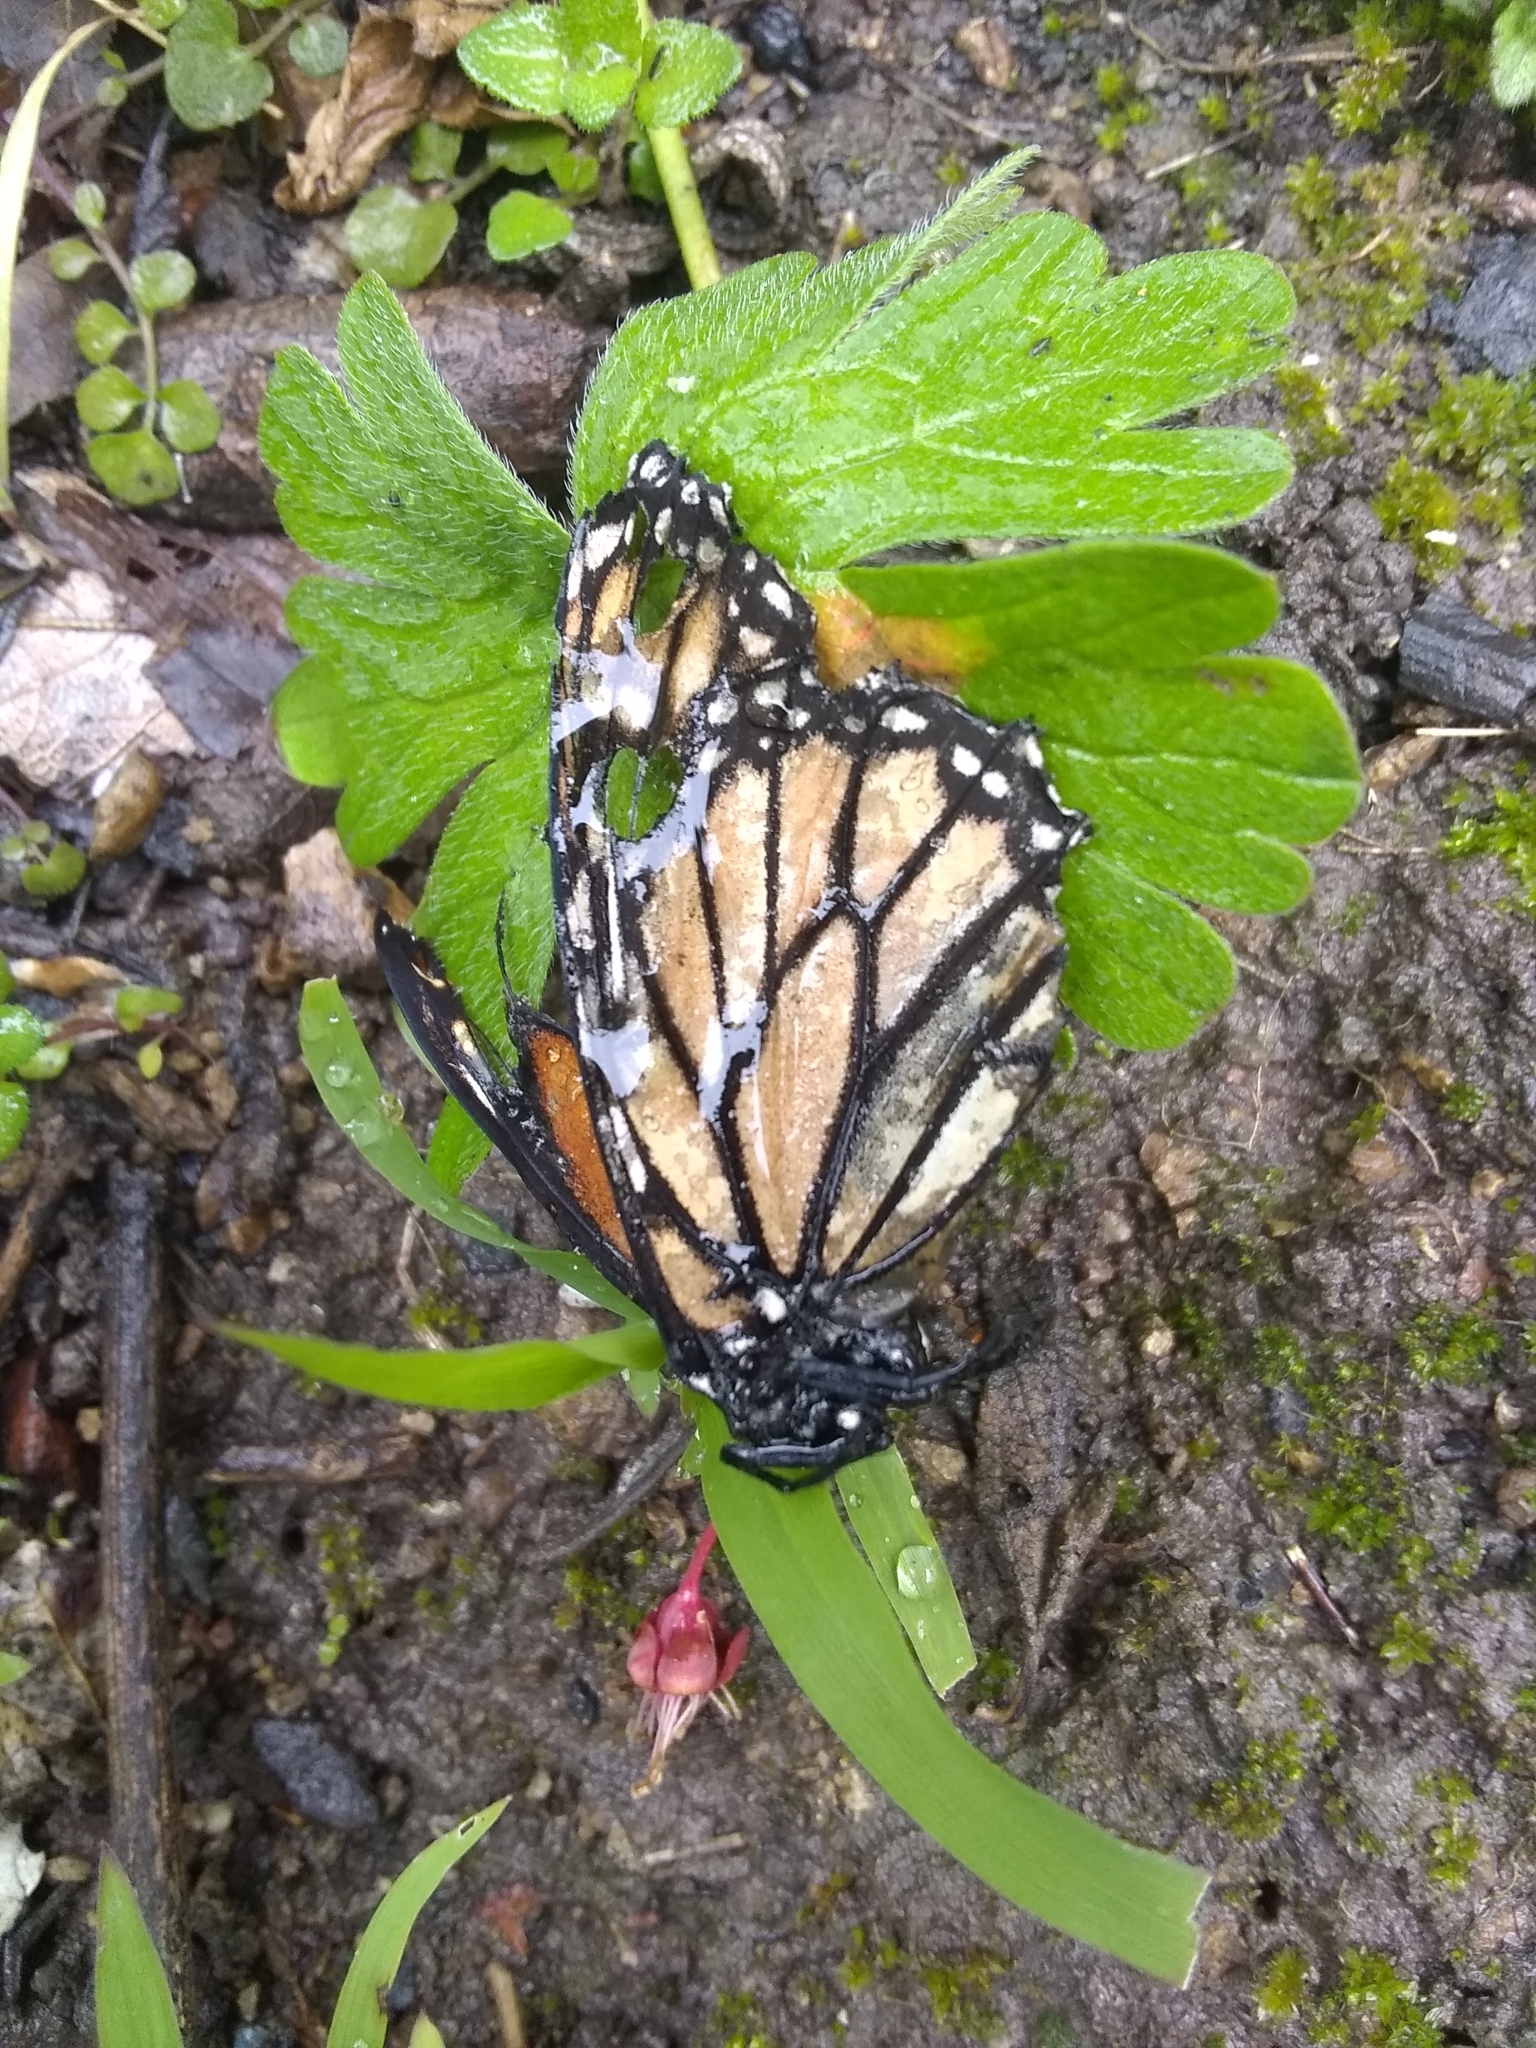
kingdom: Animalia
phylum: Arthropoda
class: Insecta
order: Lepidoptera
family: Nymphalidae
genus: Danaus
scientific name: Danaus plexippus
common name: Monarch
